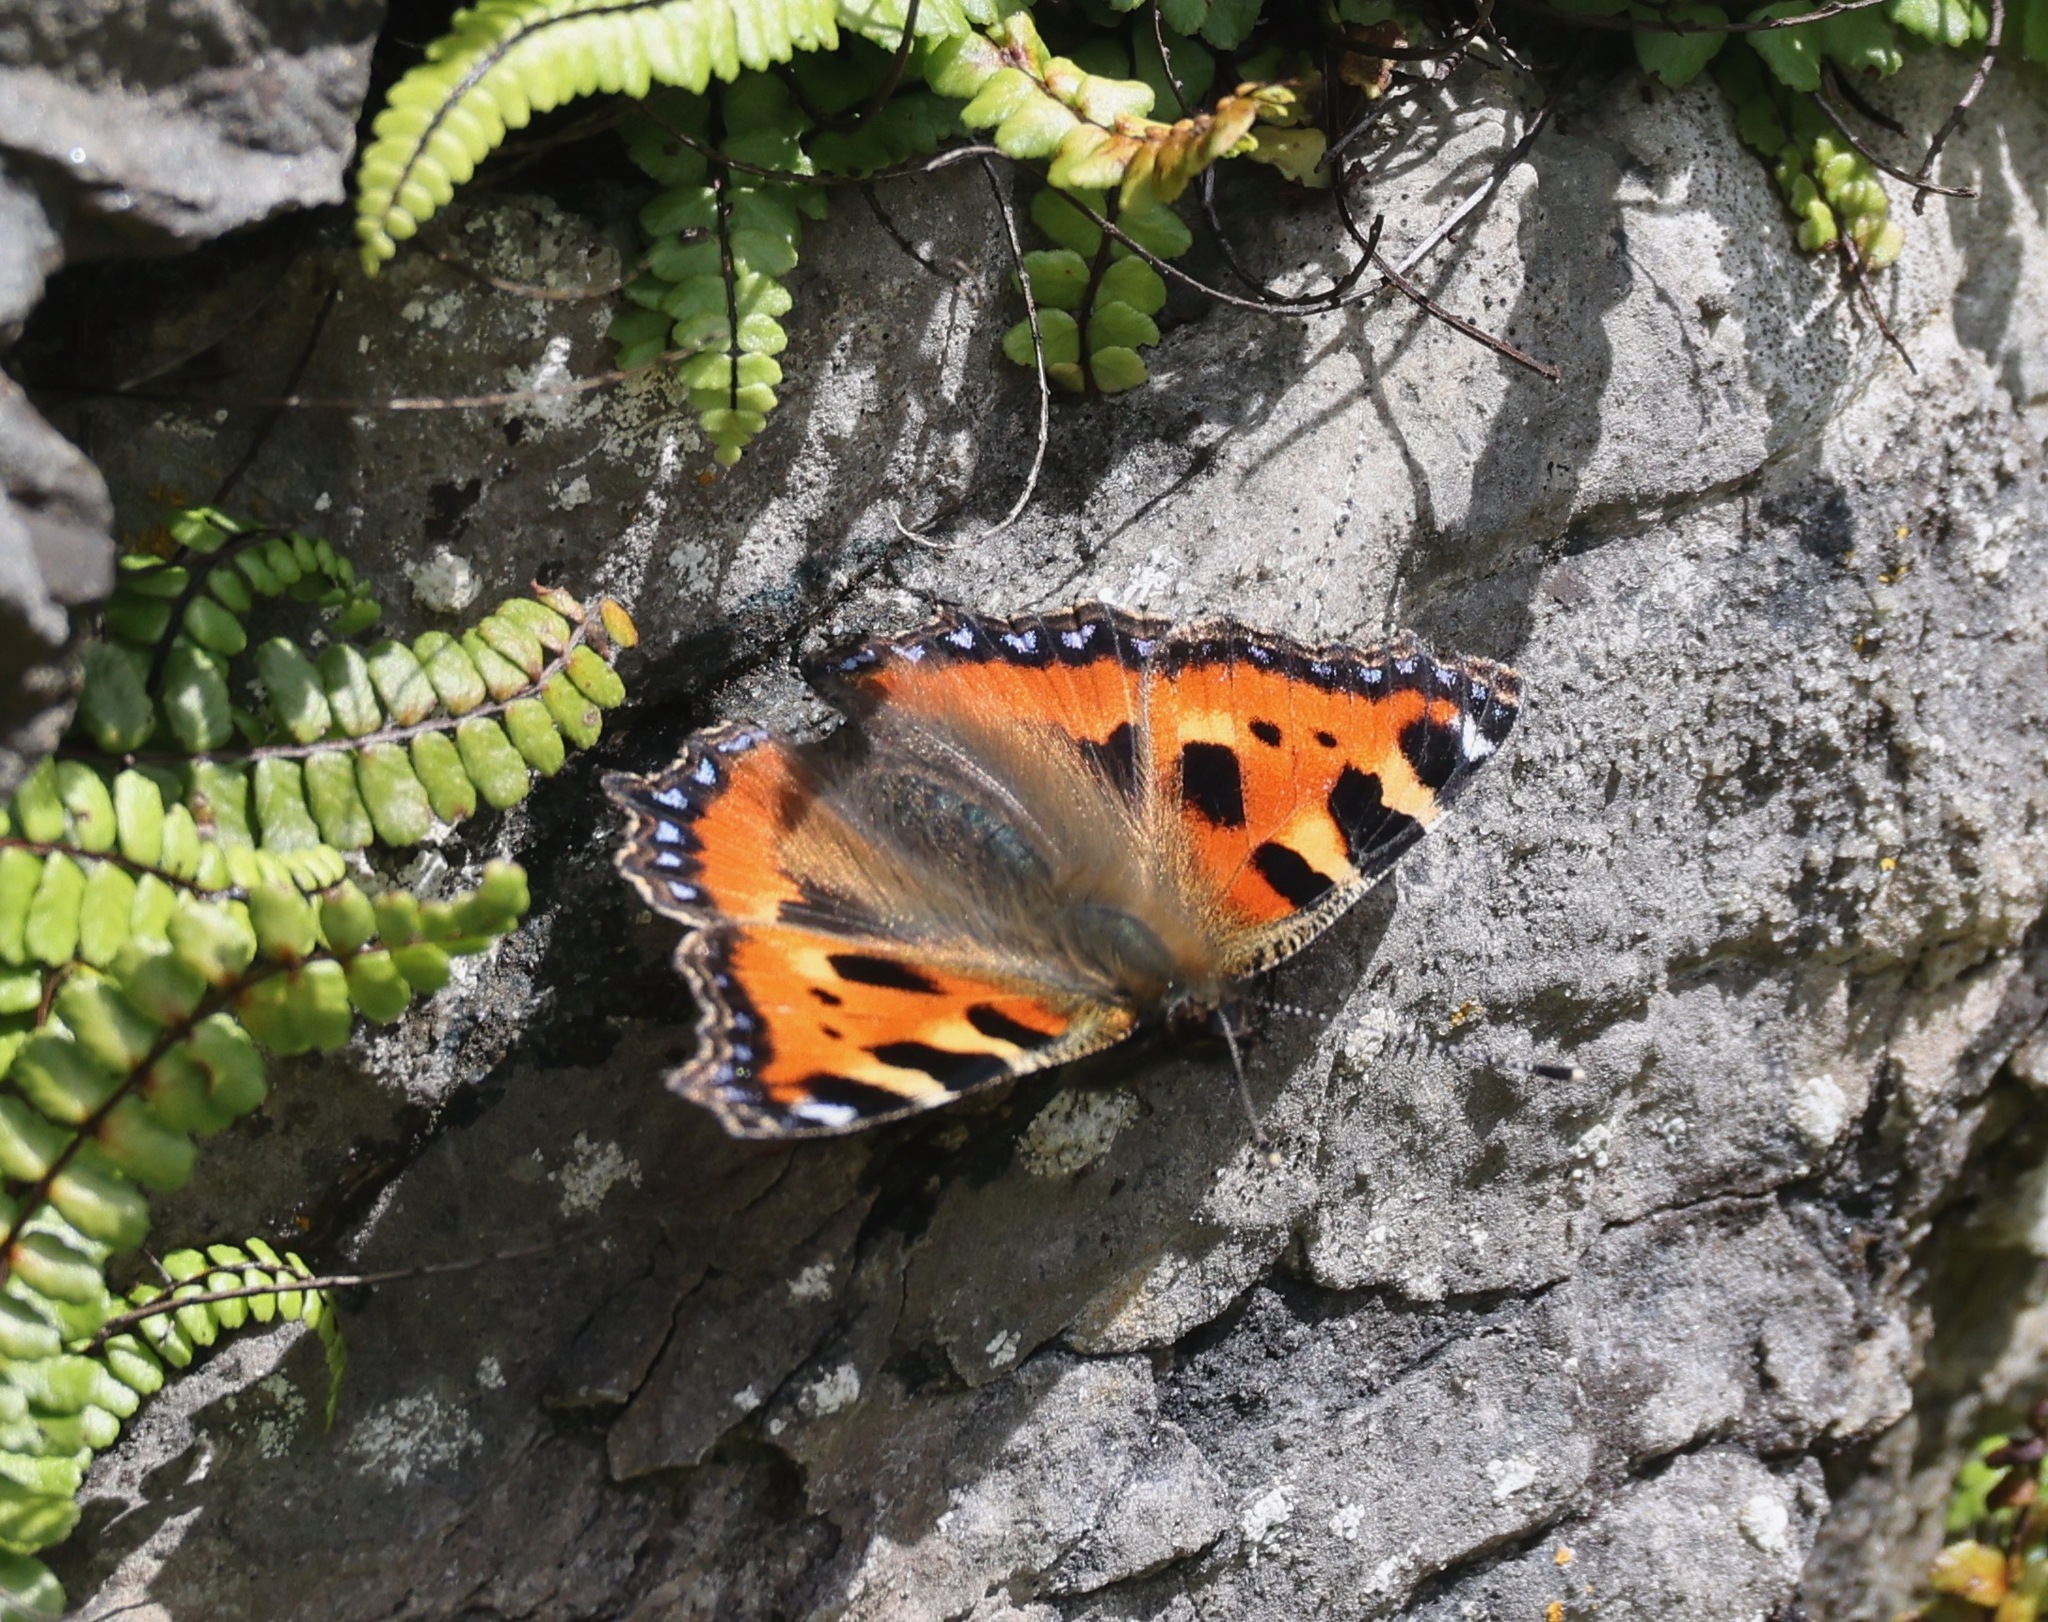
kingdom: Animalia
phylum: Arthropoda
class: Insecta
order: Lepidoptera
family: Nymphalidae
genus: Aglais
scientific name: Aglais urticae
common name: Small tortoiseshell
